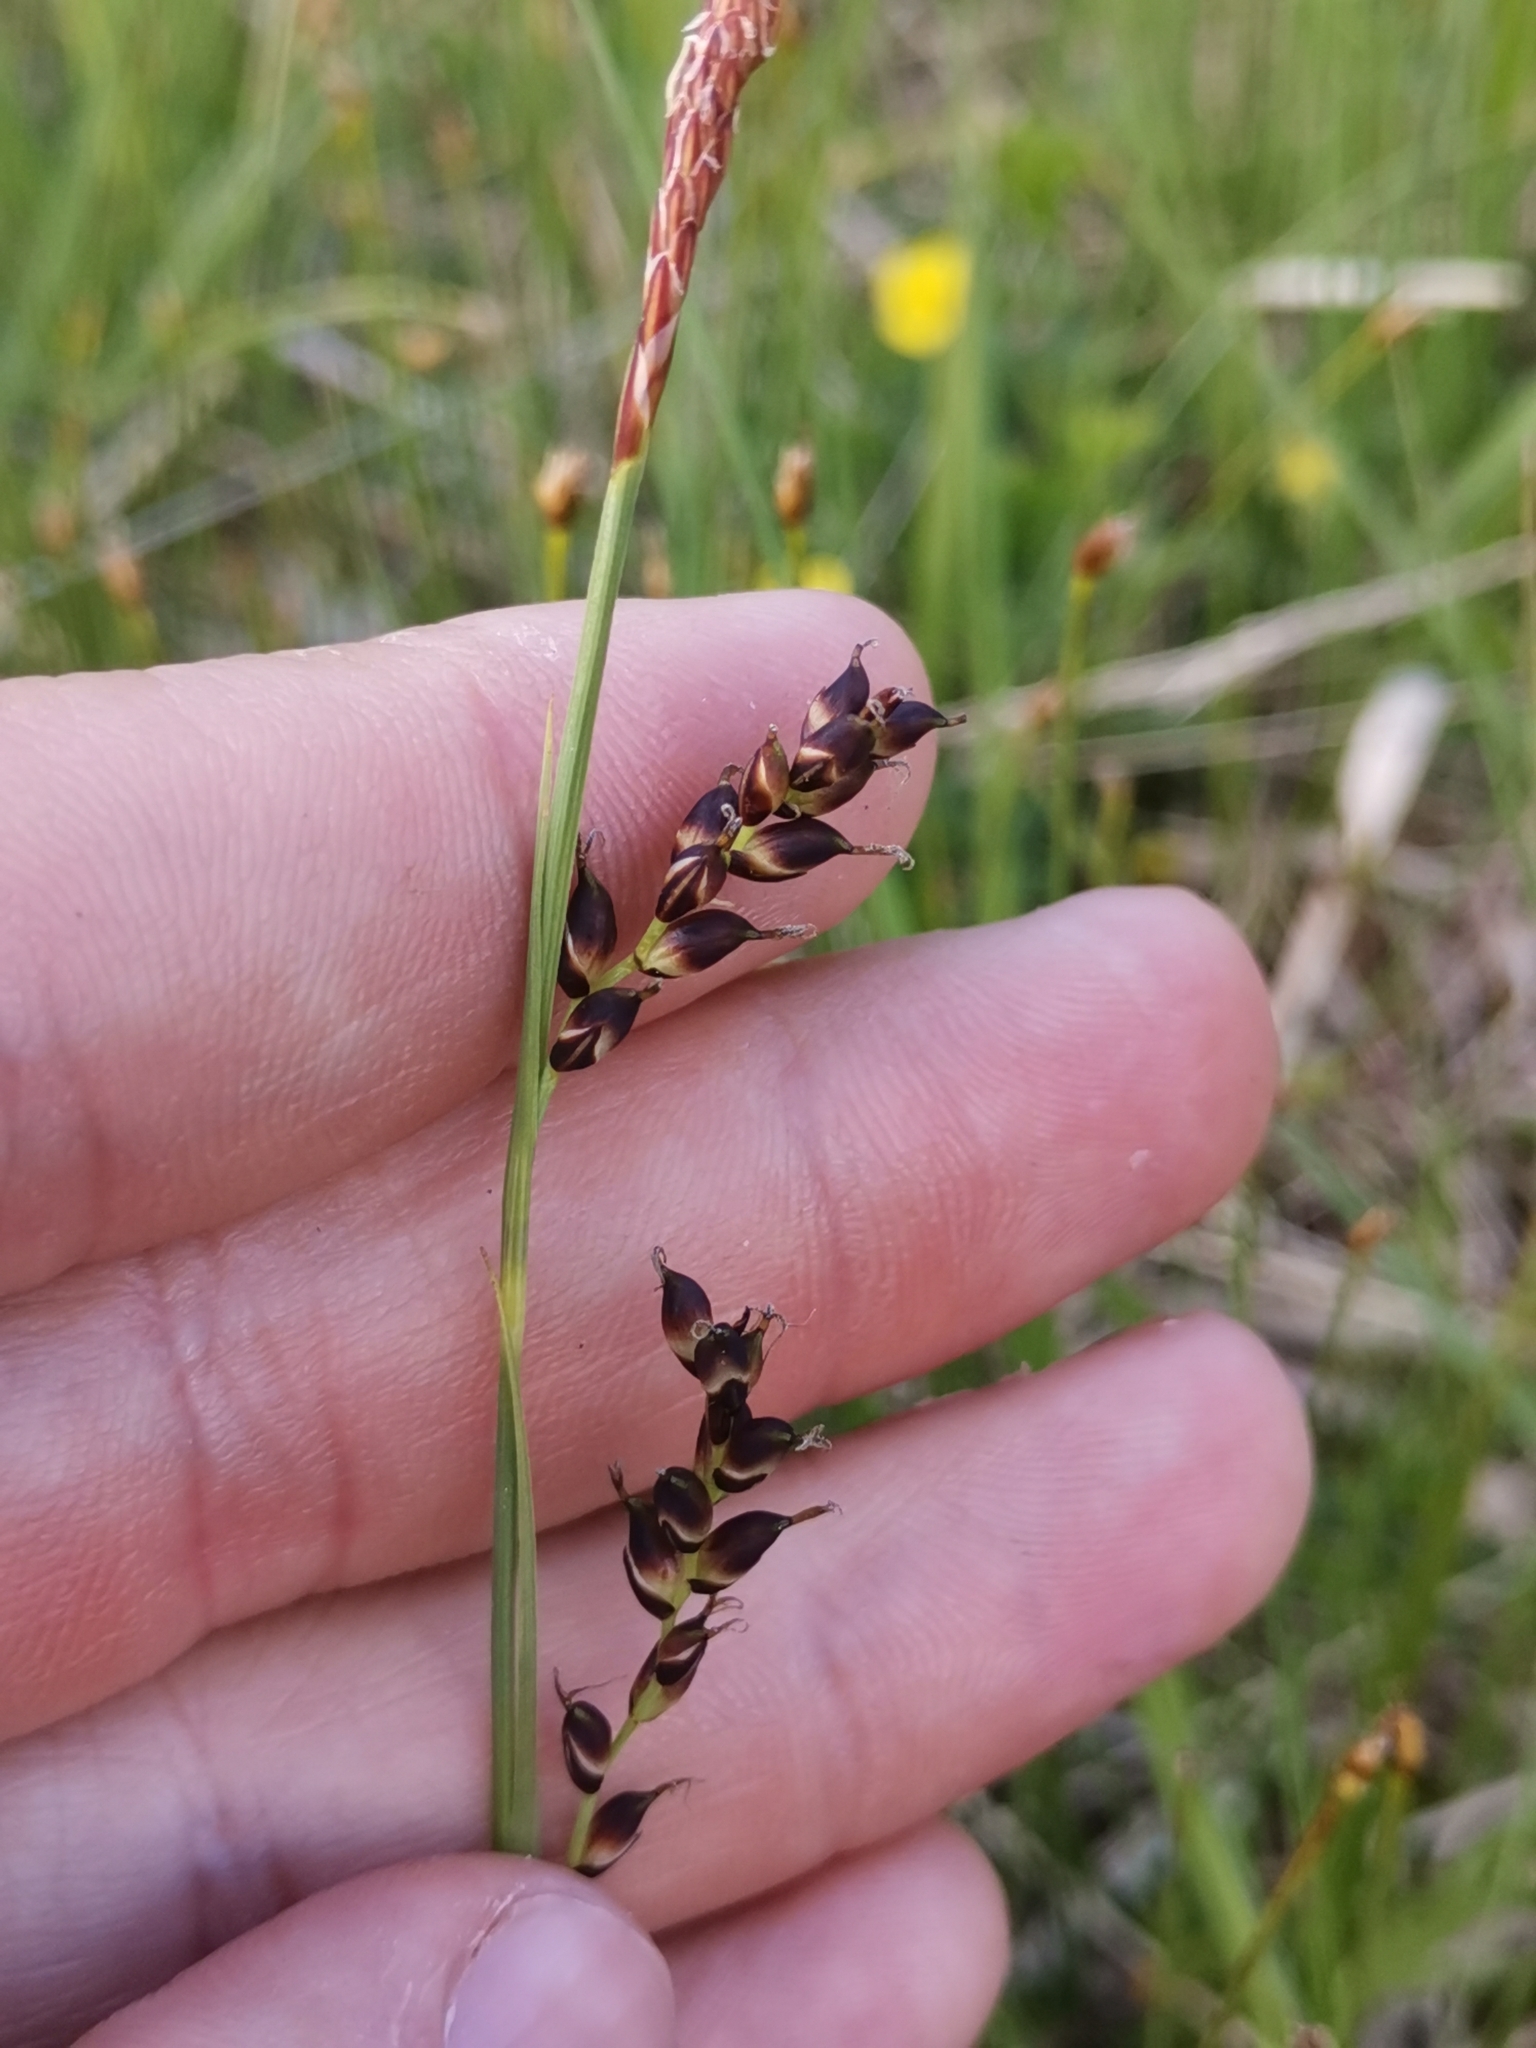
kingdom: Plantae
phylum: Tracheophyta
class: Liliopsida
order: Poales
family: Cyperaceae
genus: Carex
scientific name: Carex panicea
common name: Carnation sedge
